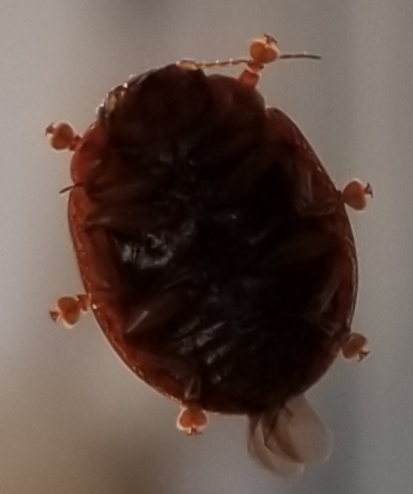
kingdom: Animalia
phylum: Arthropoda
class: Insecta
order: Coleoptera
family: Chrysomelidae
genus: Trachymela
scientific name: Trachymela sloanei
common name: Australian tortoise beetle
